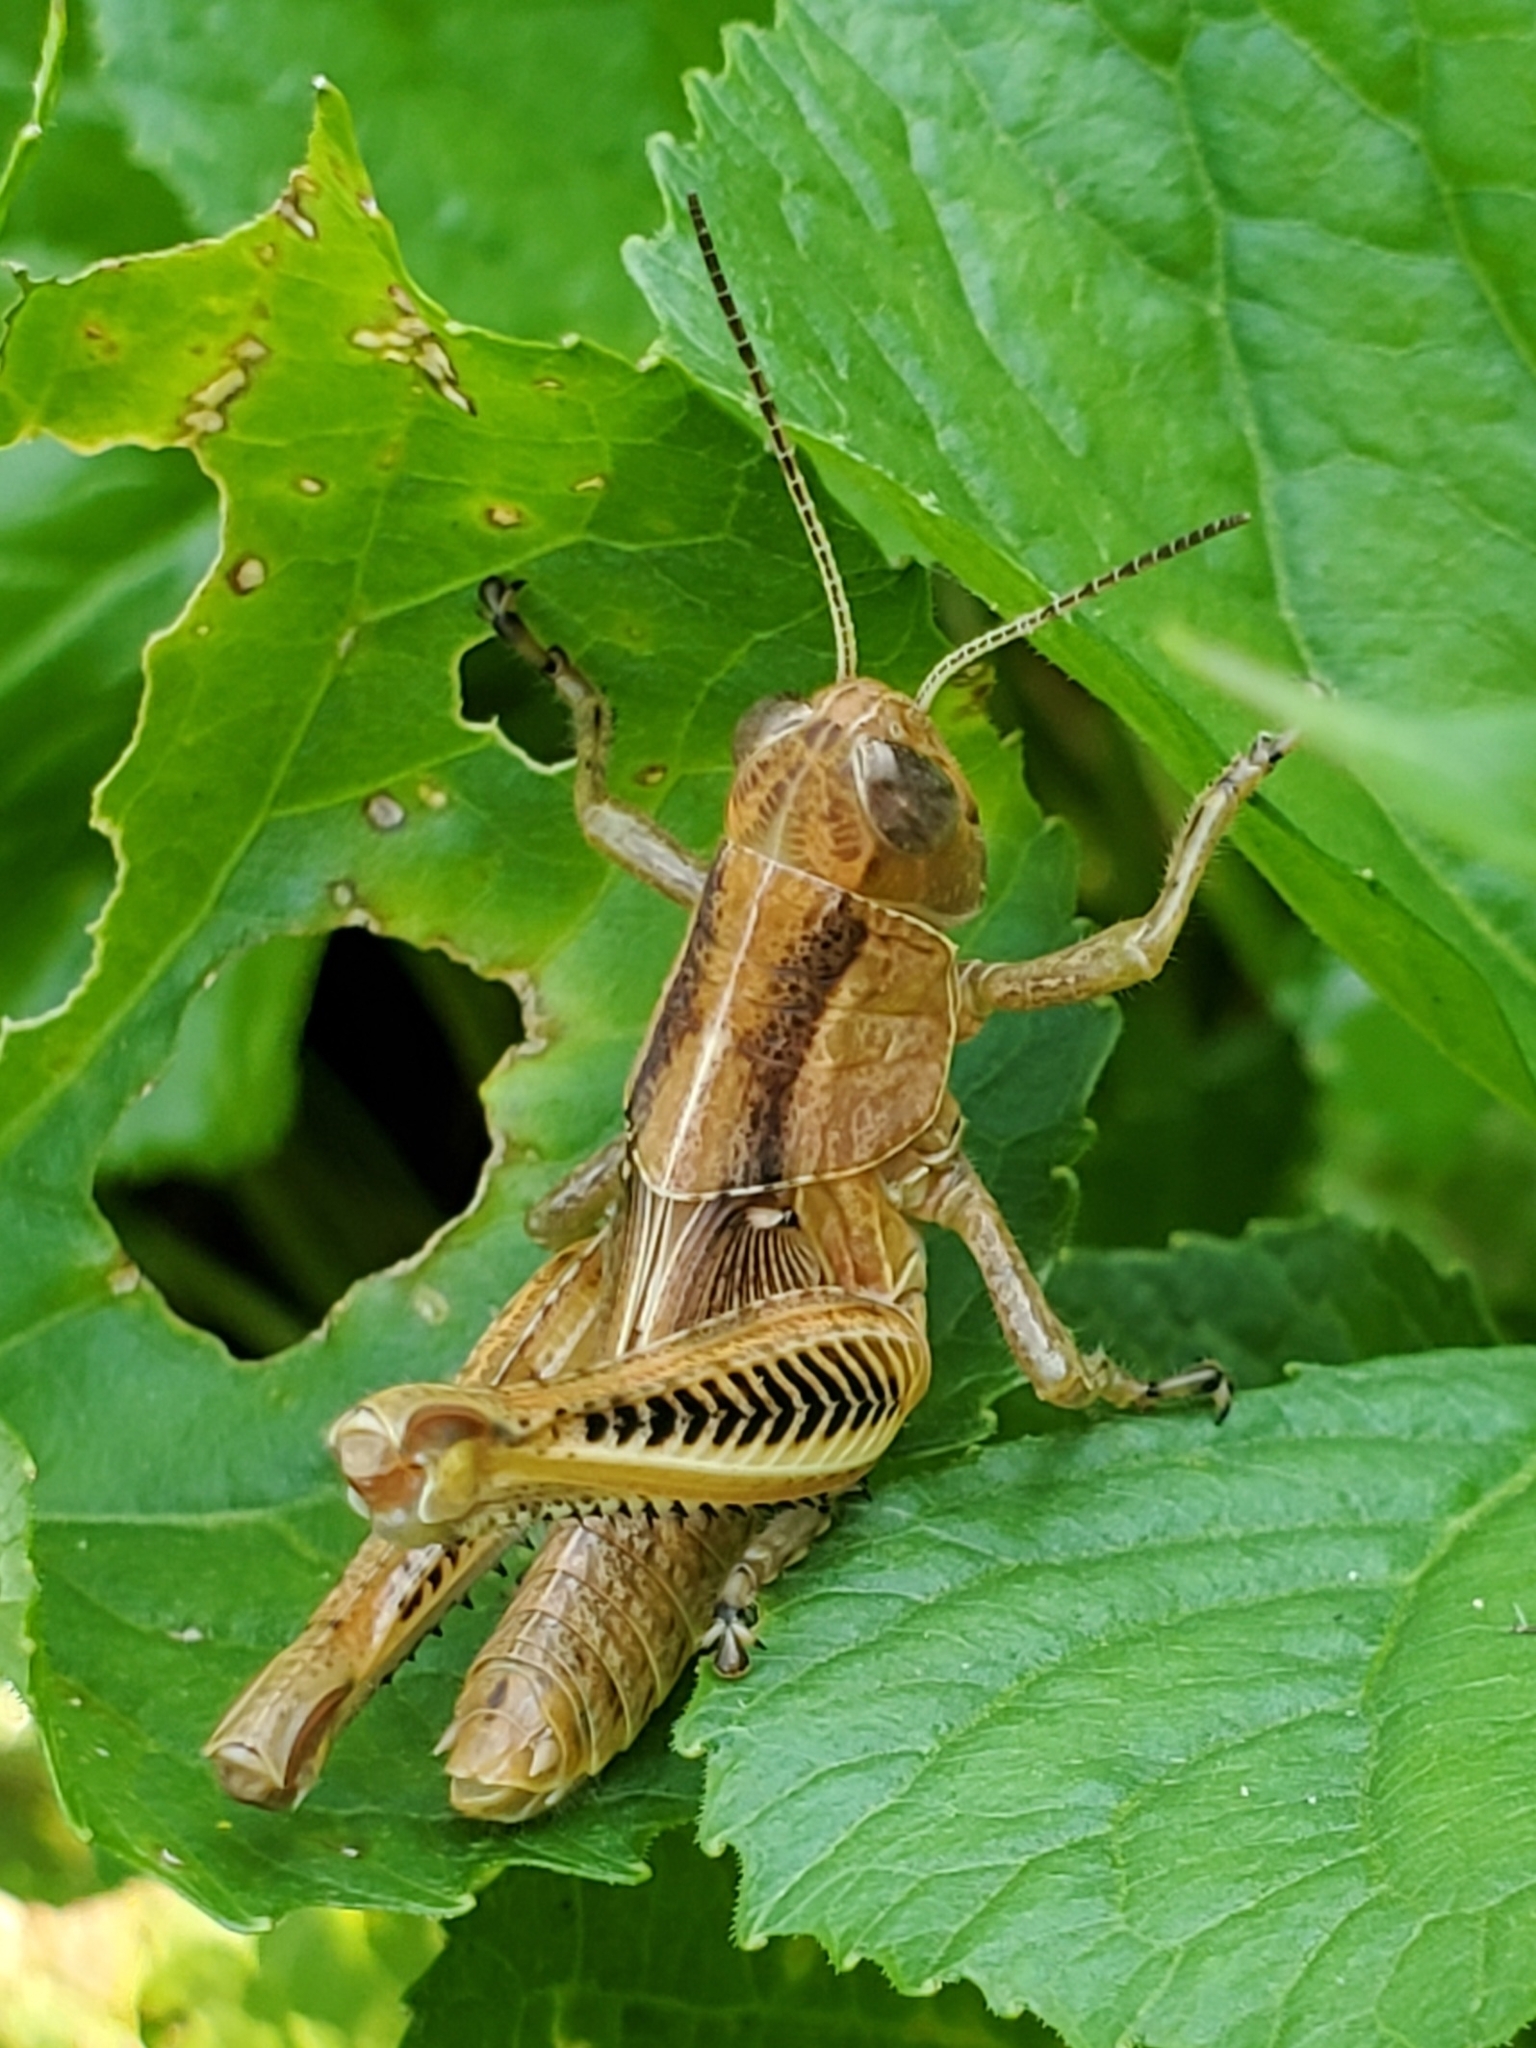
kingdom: Animalia
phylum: Arthropoda
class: Insecta
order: Orthoptera
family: Acrididae
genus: Melanoplus
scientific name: Melanoplus differentialis
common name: Differential grasshopper
